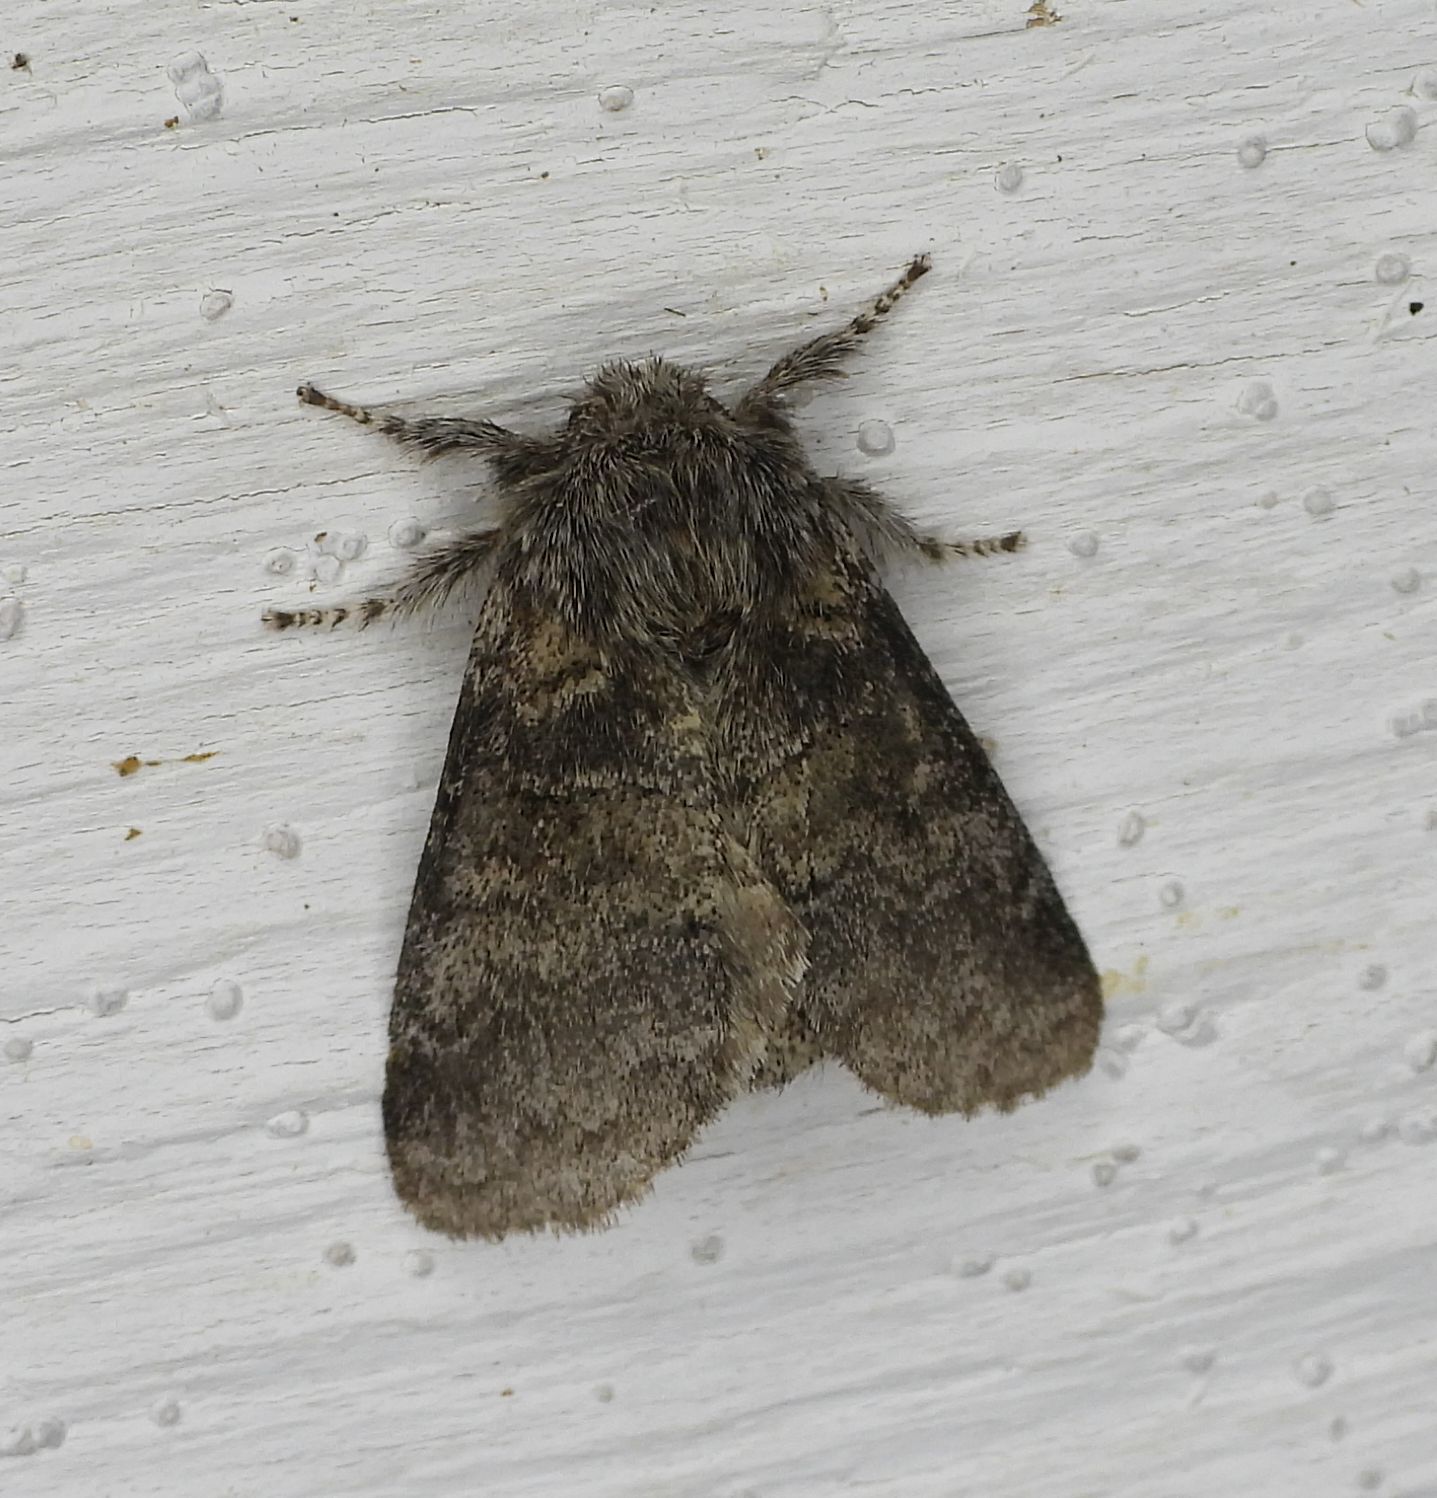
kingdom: Animalia
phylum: Arthropoda
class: Insecta
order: Lepidoptera
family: Notodontidae
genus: Gluphisia
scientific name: Gluphisia septentrionis
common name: Common gluphisia
